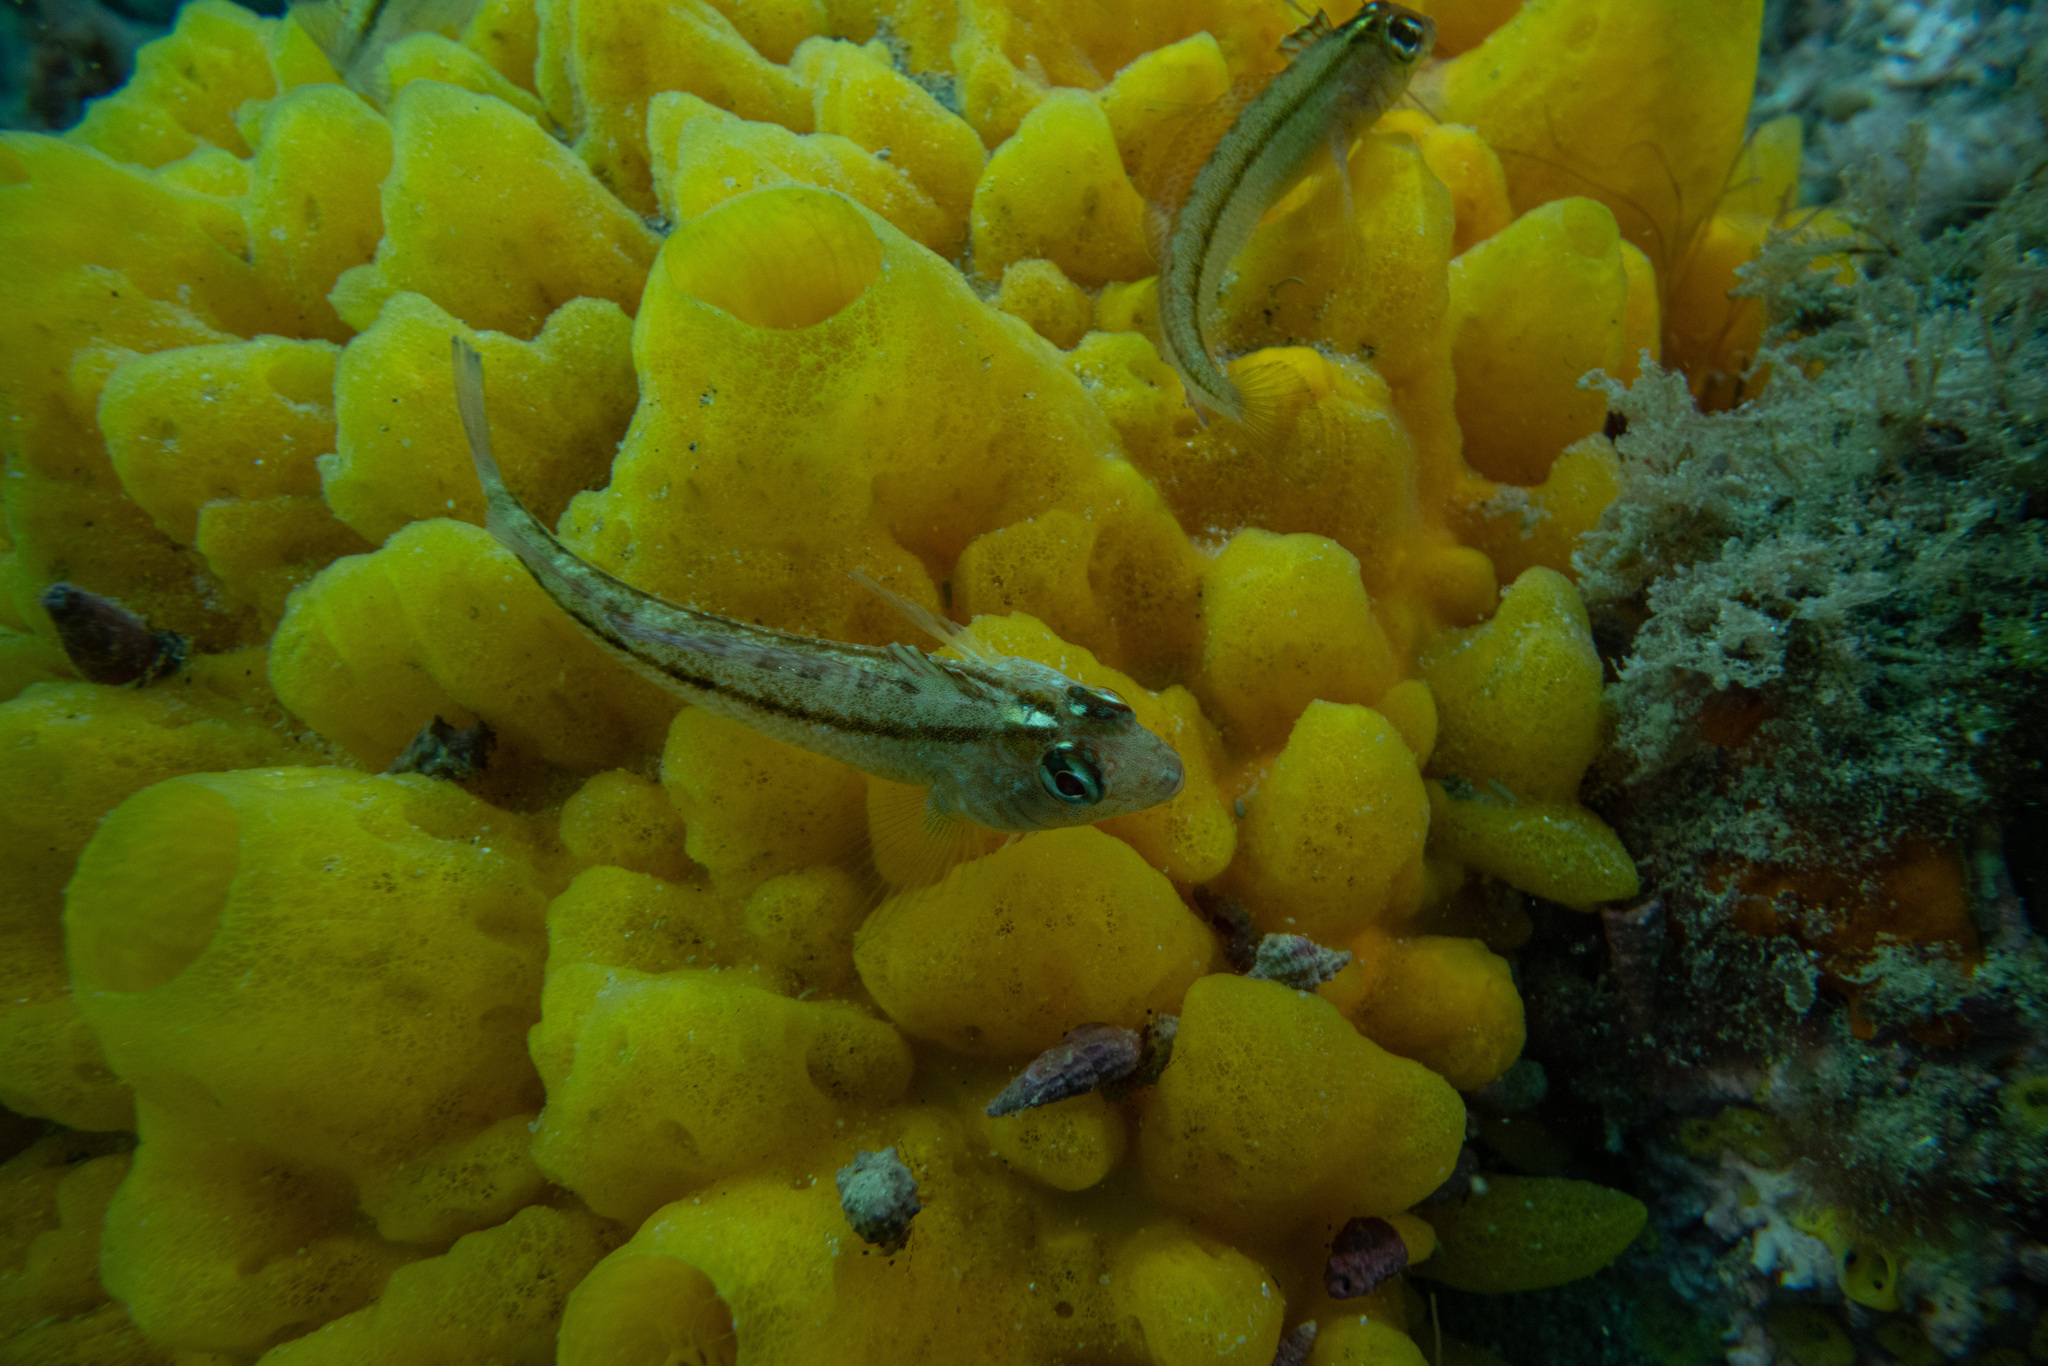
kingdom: Animalia
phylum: Chordata
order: Perciformes
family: Tripterygiidae
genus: Forsterygion
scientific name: Forsterygion lapillum
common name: Common triplefin
